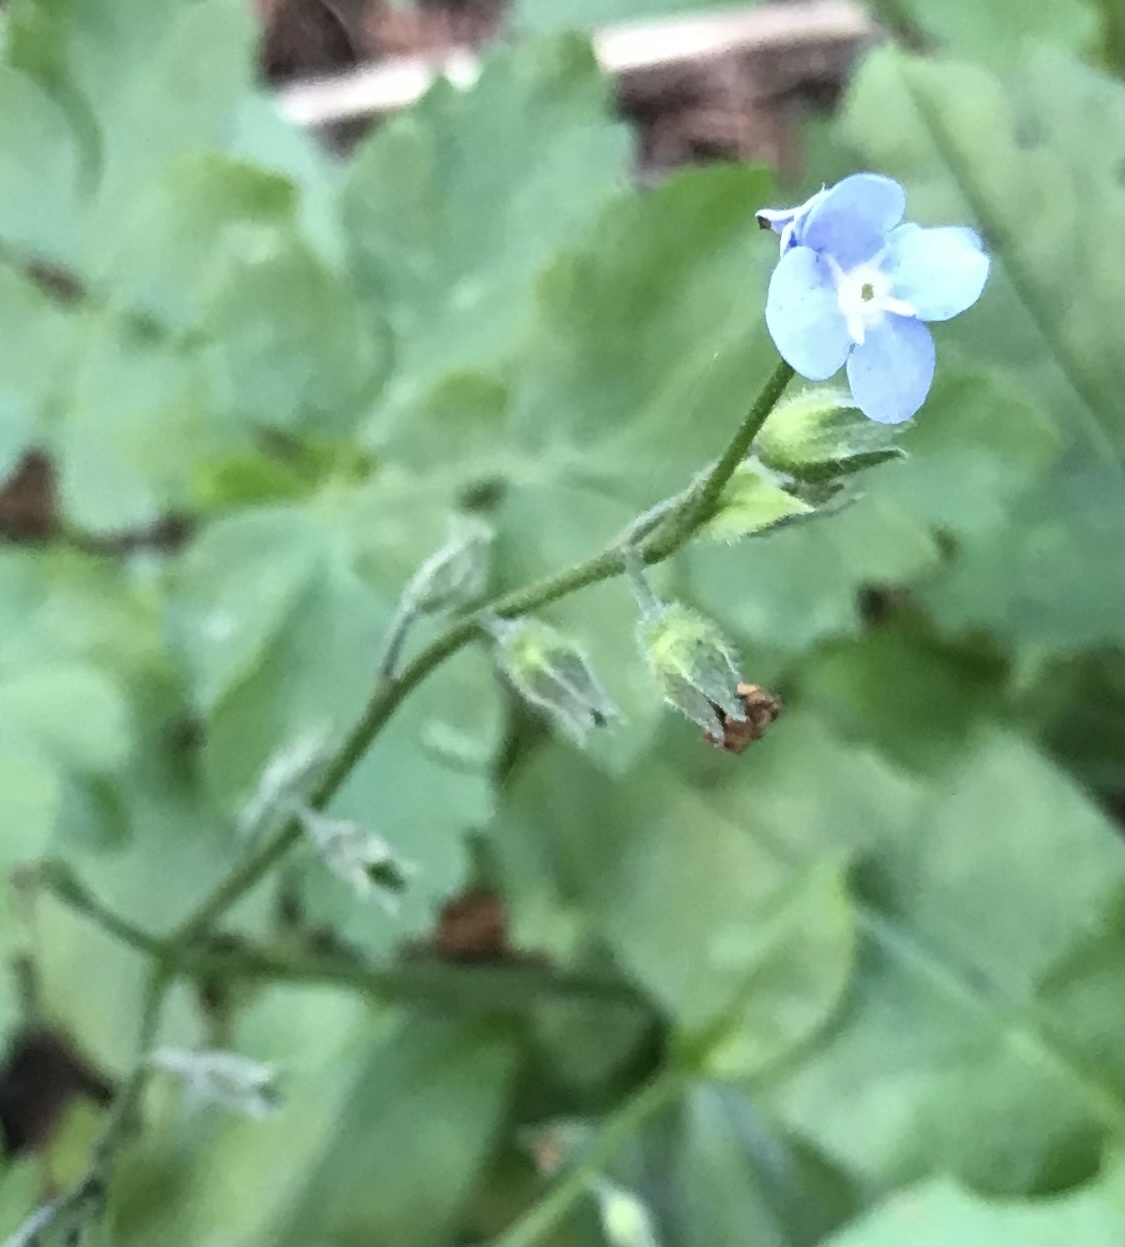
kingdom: Plantae
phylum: Tracheophyta
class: Magnoliopsida
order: Boraginales
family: Boraginaceae
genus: Myosotis
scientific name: Myosotis latifolia
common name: Broadleaf forget-me-not
